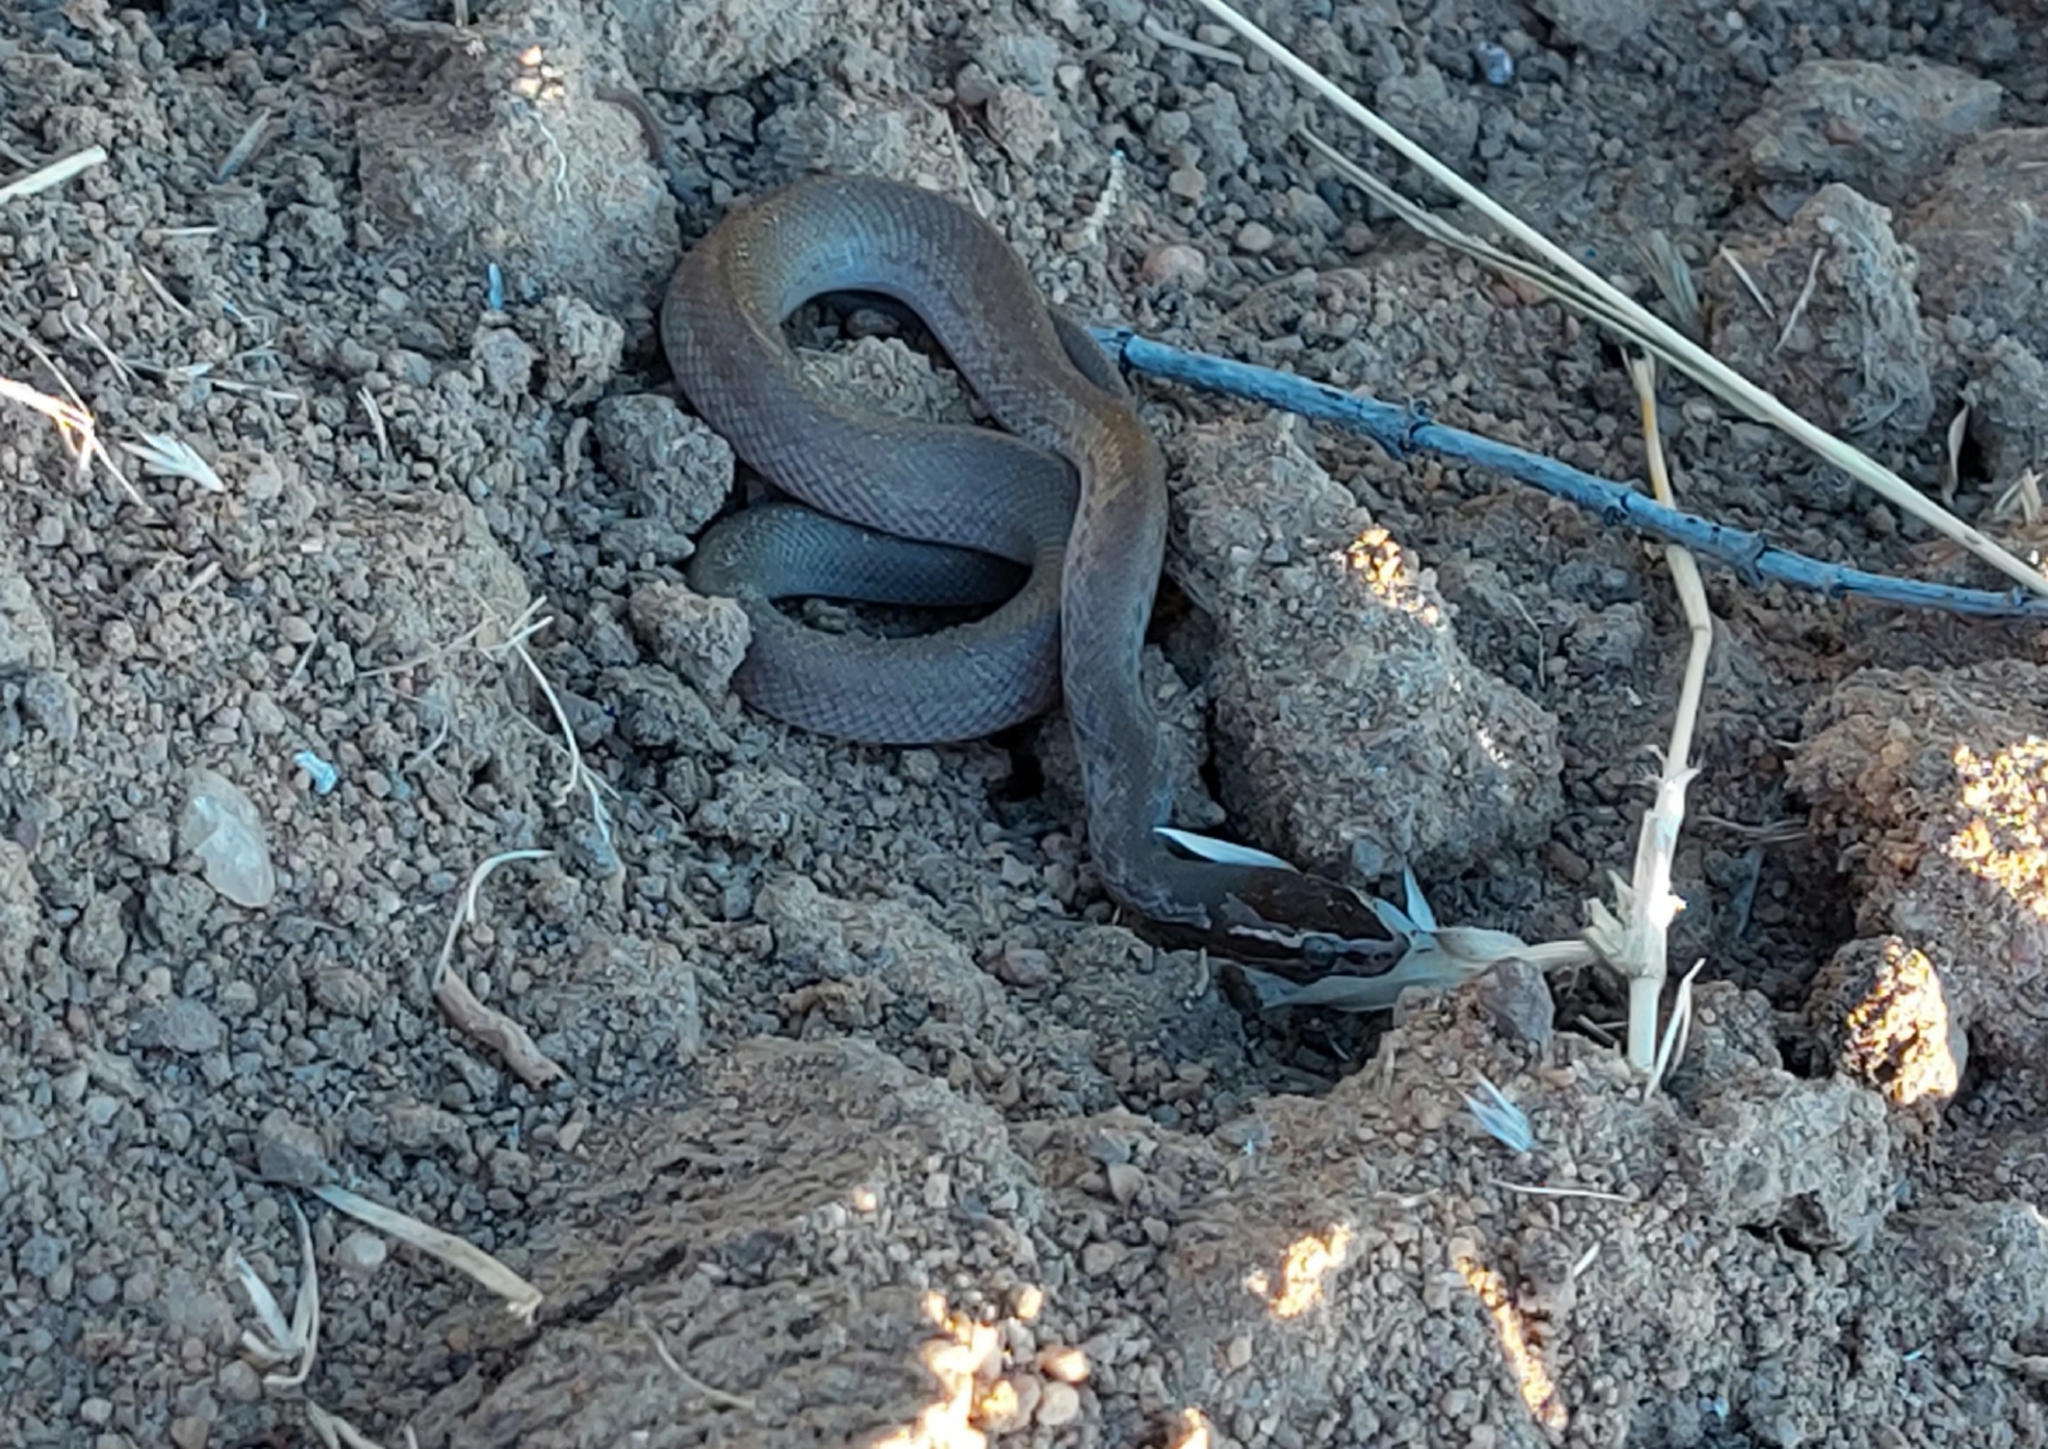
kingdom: Animalia
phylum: Chordata
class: Squamata
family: Lamprophiidae
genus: Boaedon
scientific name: Boaedon capensis
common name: Brown house snake
